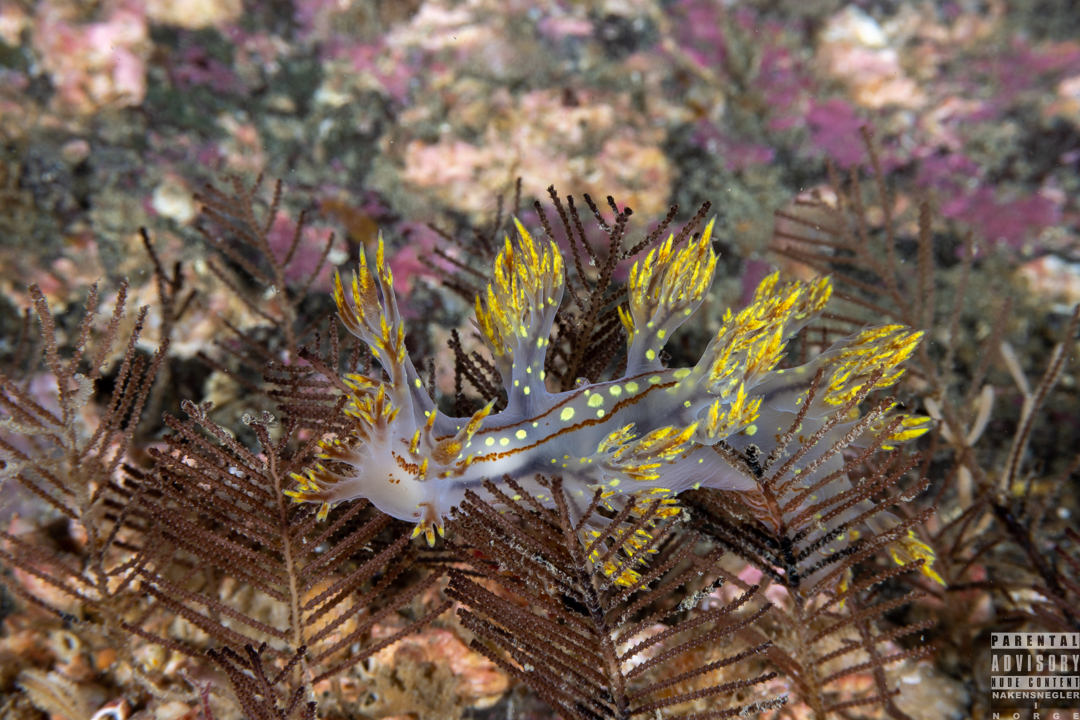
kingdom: Animalia
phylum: Mollusca
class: Gastropoda
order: Nudibranchia
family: Dendronotidae
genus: Dendronotus
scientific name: Dendronotus yrjargul
